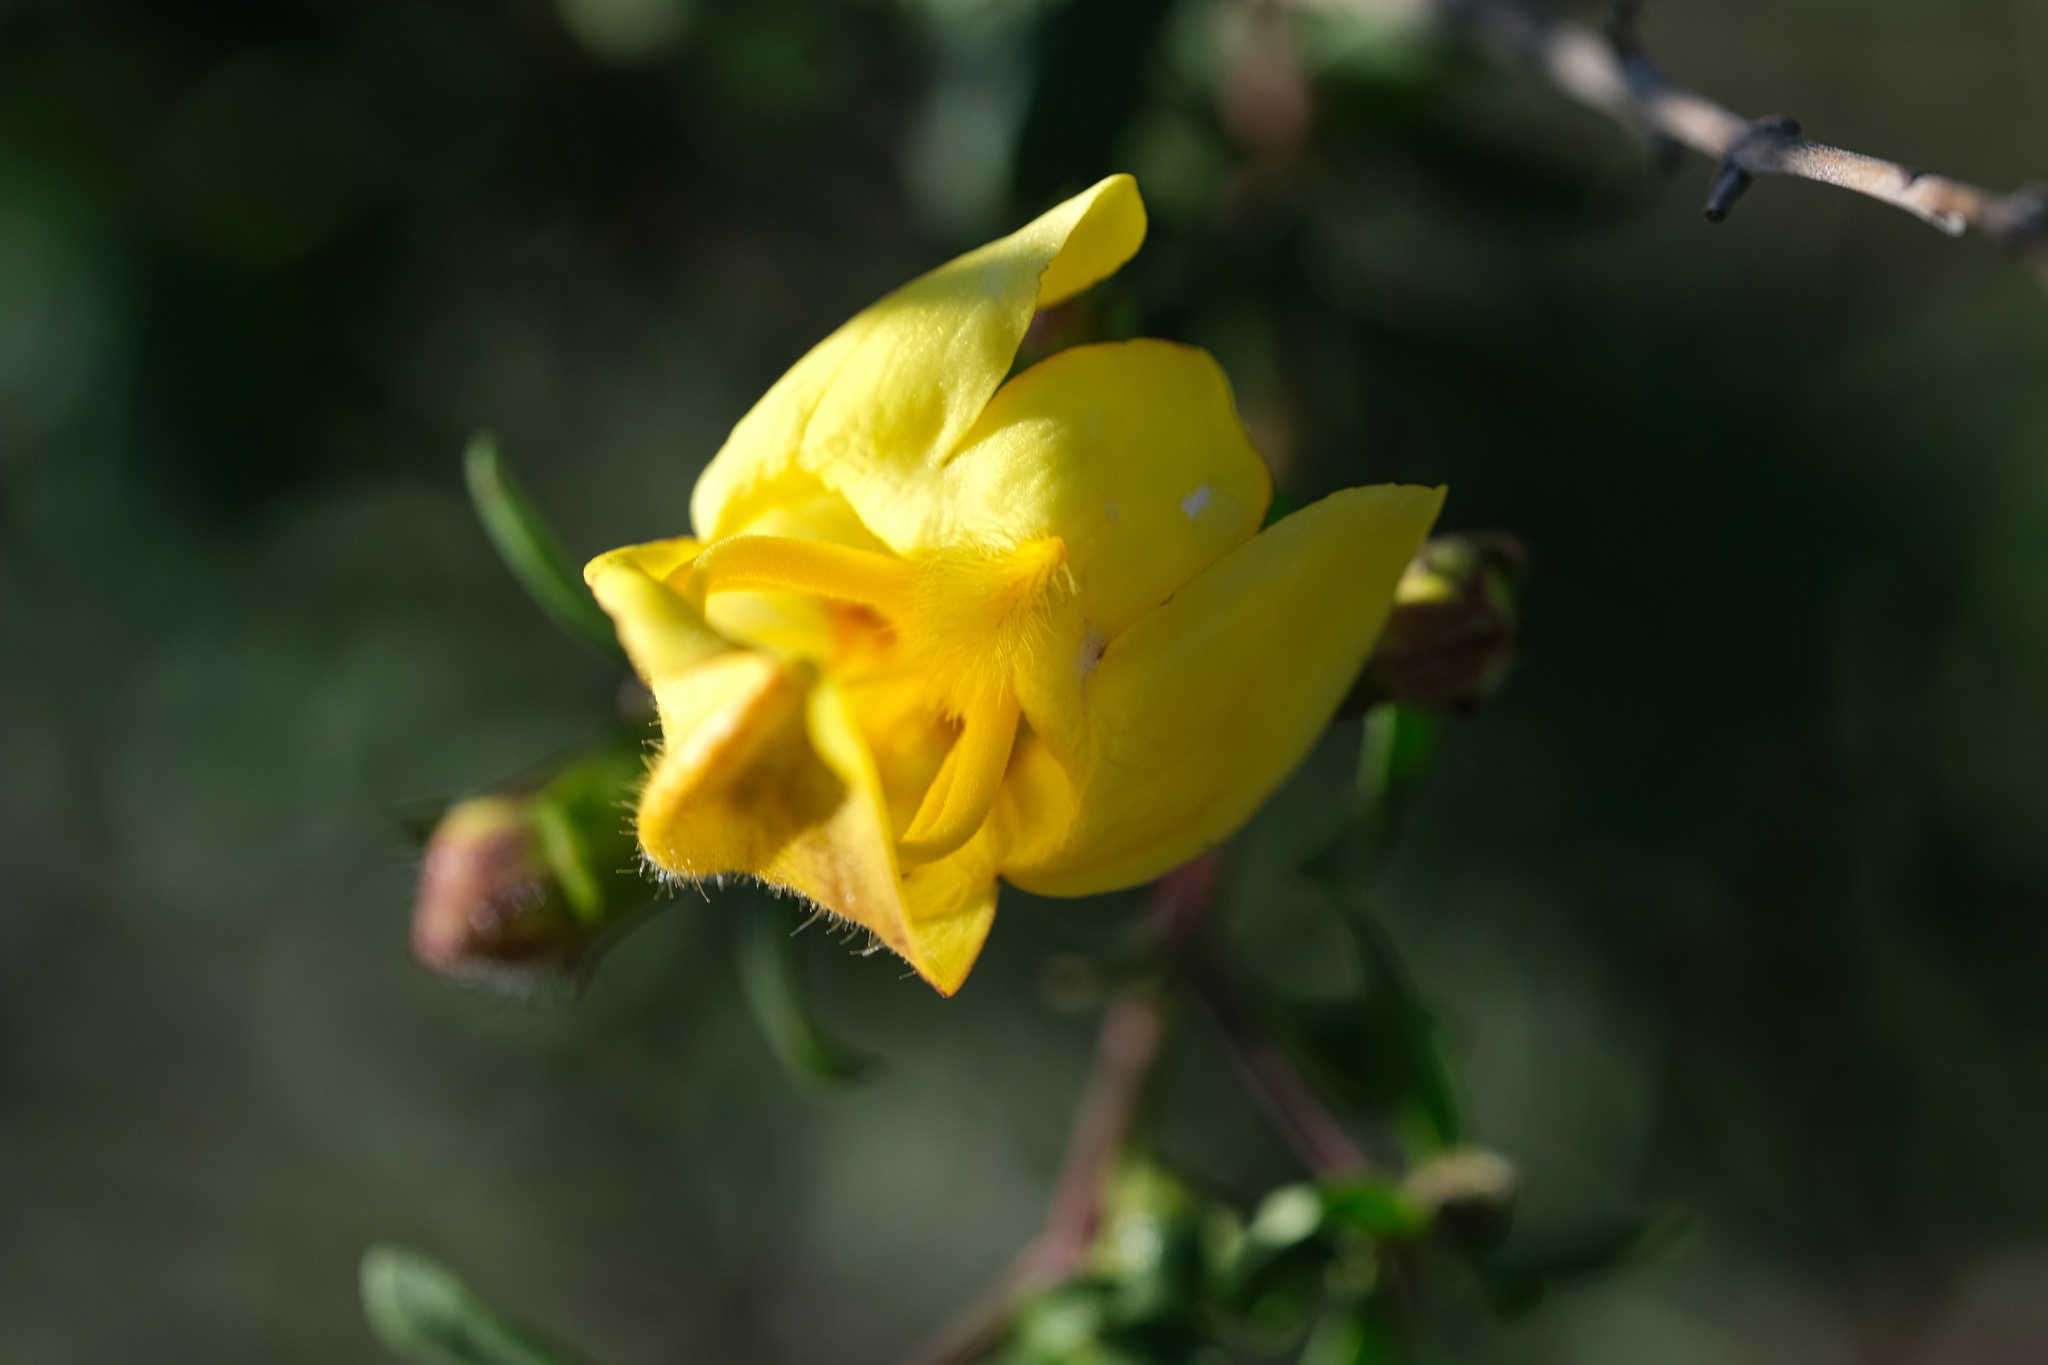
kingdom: Plantae
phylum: Tracheophyta
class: Magnoliopsida
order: Lamiales
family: Plantaginaceae
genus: Keckiella
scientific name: Keckiella antirrhinoides
